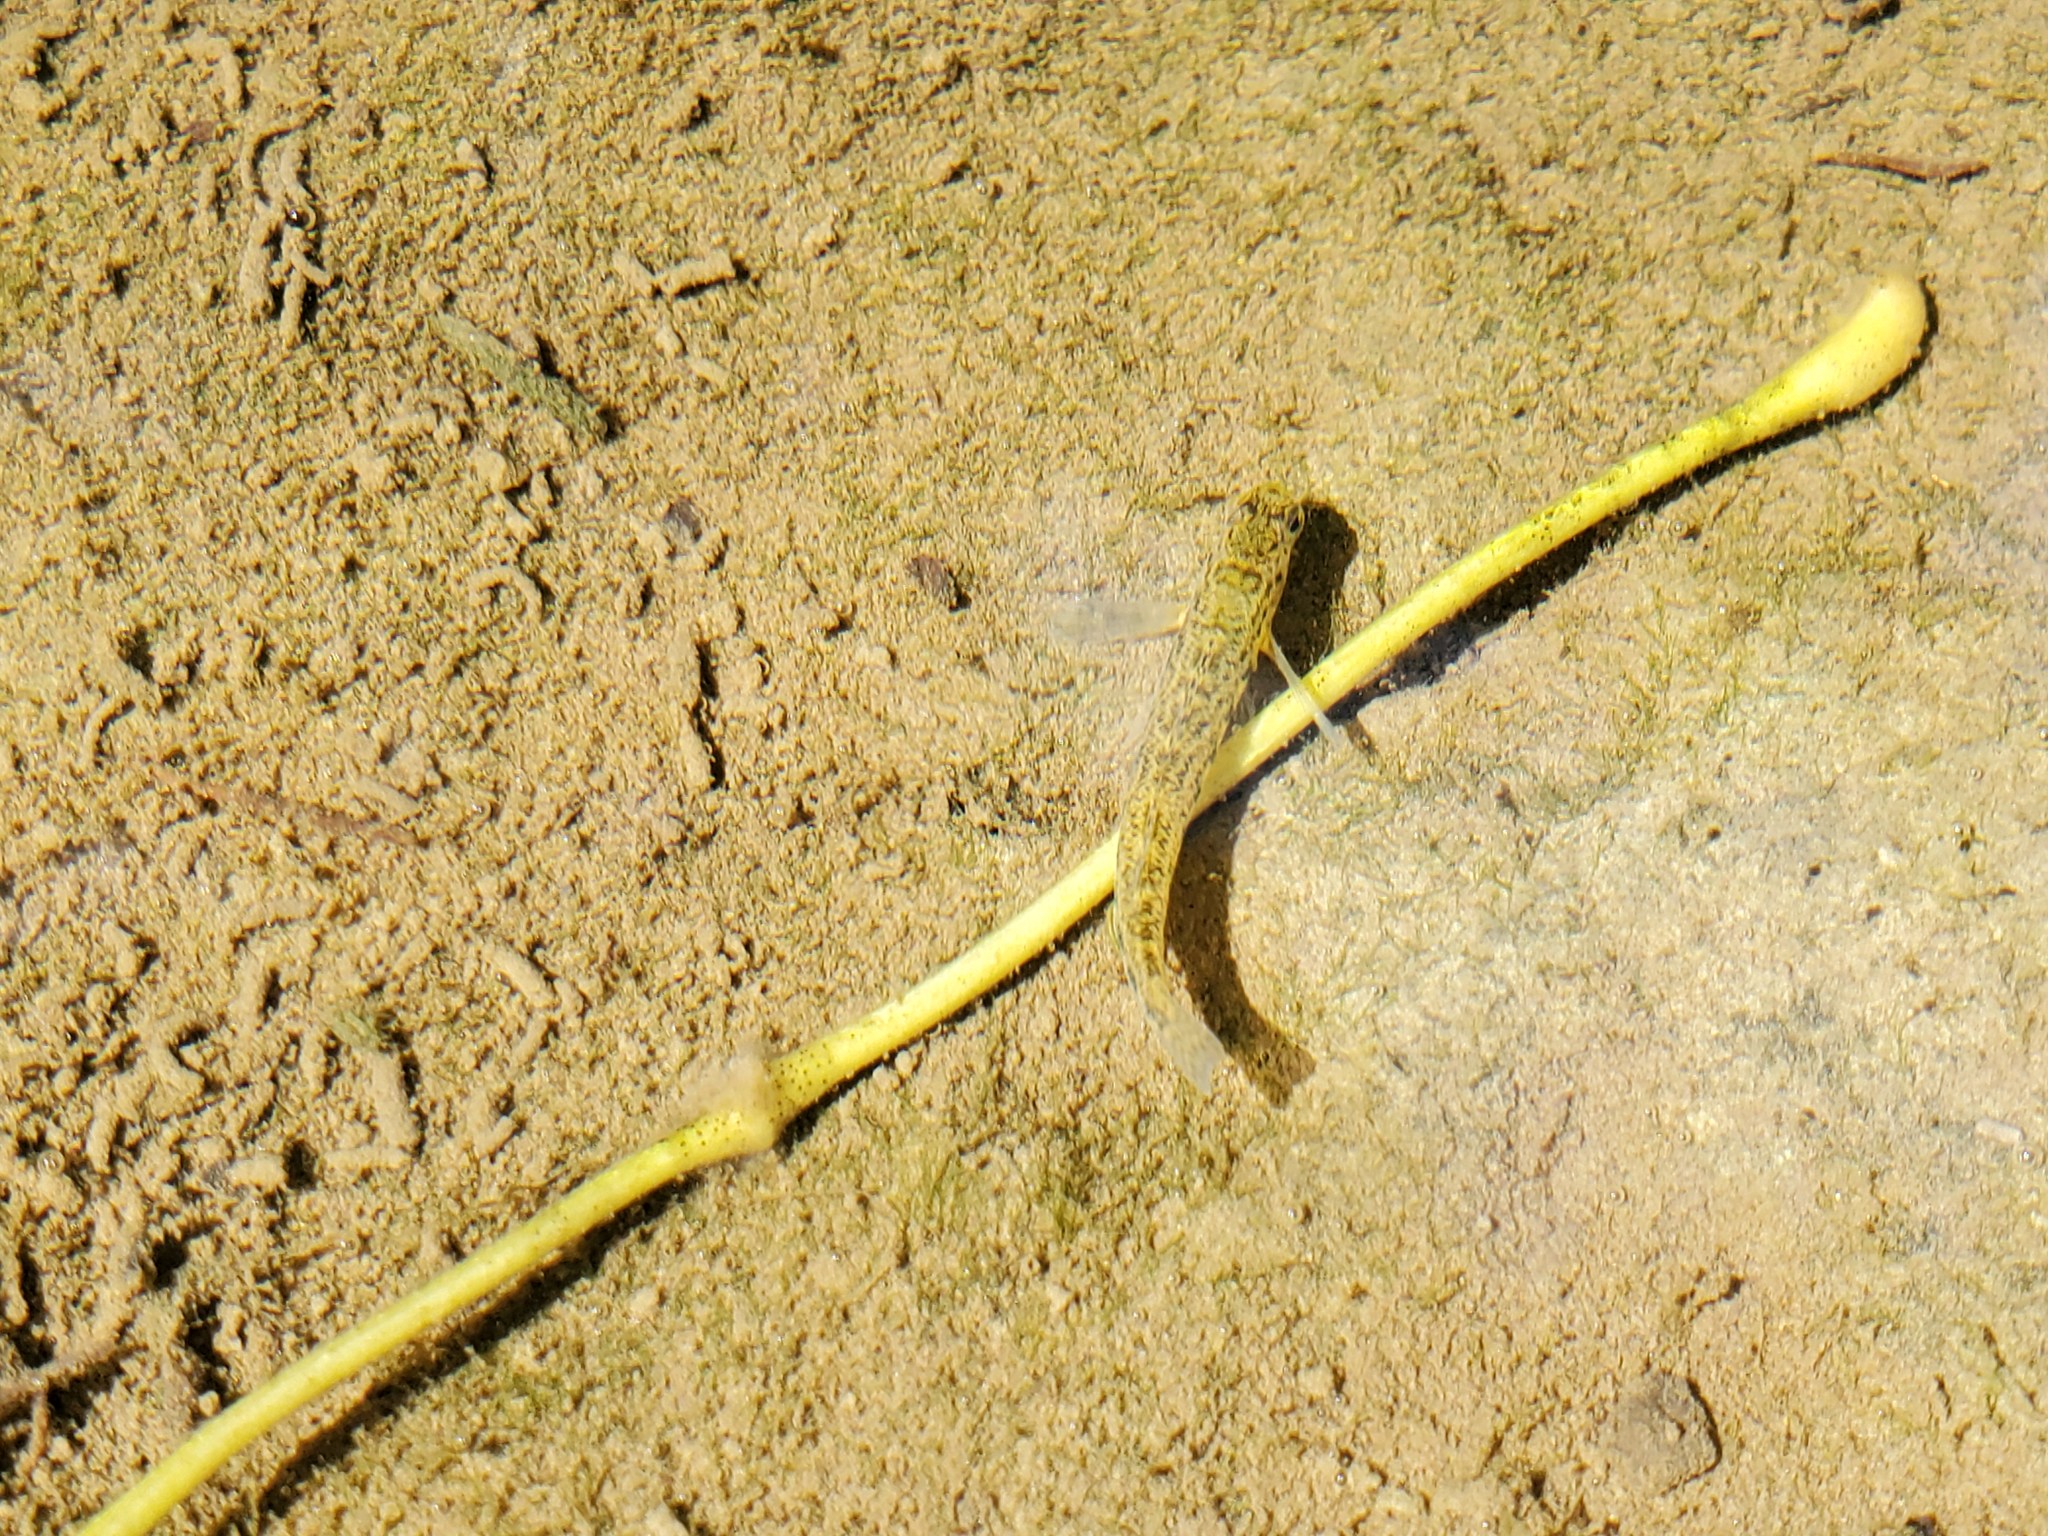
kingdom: Animalia
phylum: Chordata
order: Perciformes
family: Percidae
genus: Etheostoma
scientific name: Etheostoma atripinne
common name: Cumberland snubnose darter
